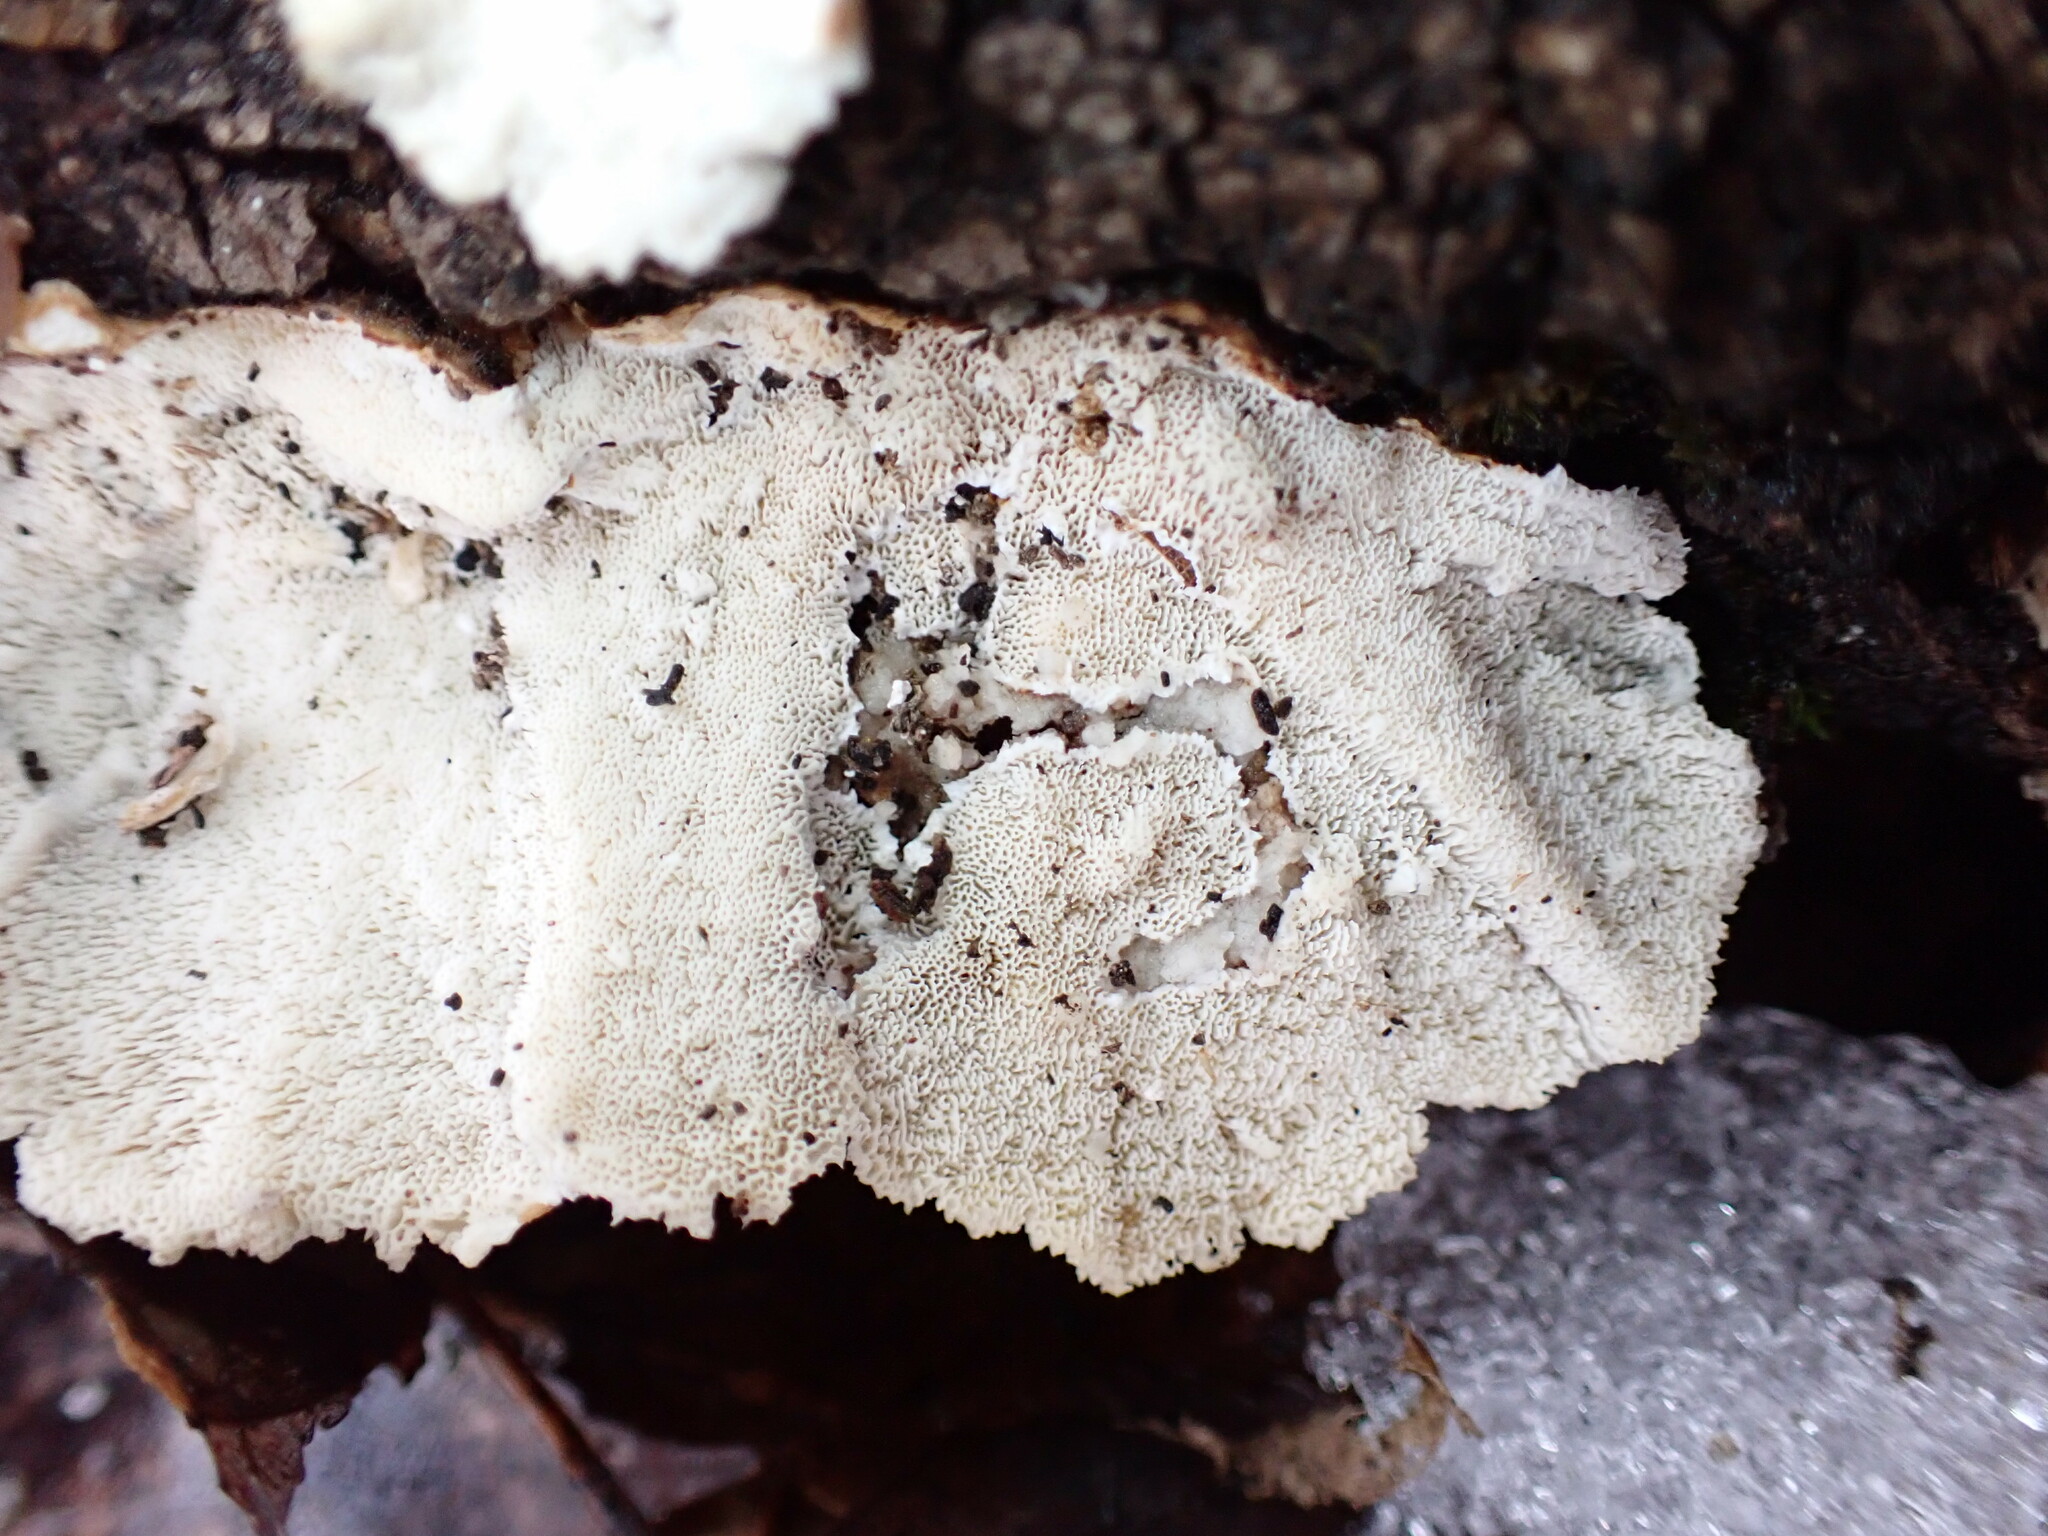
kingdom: Fungi
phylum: Basidiomycota
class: Agaricomycetes
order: Polyporales
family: Polyporaceae
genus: Trametes
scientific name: Trametes versicolor
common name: Turkeytail
